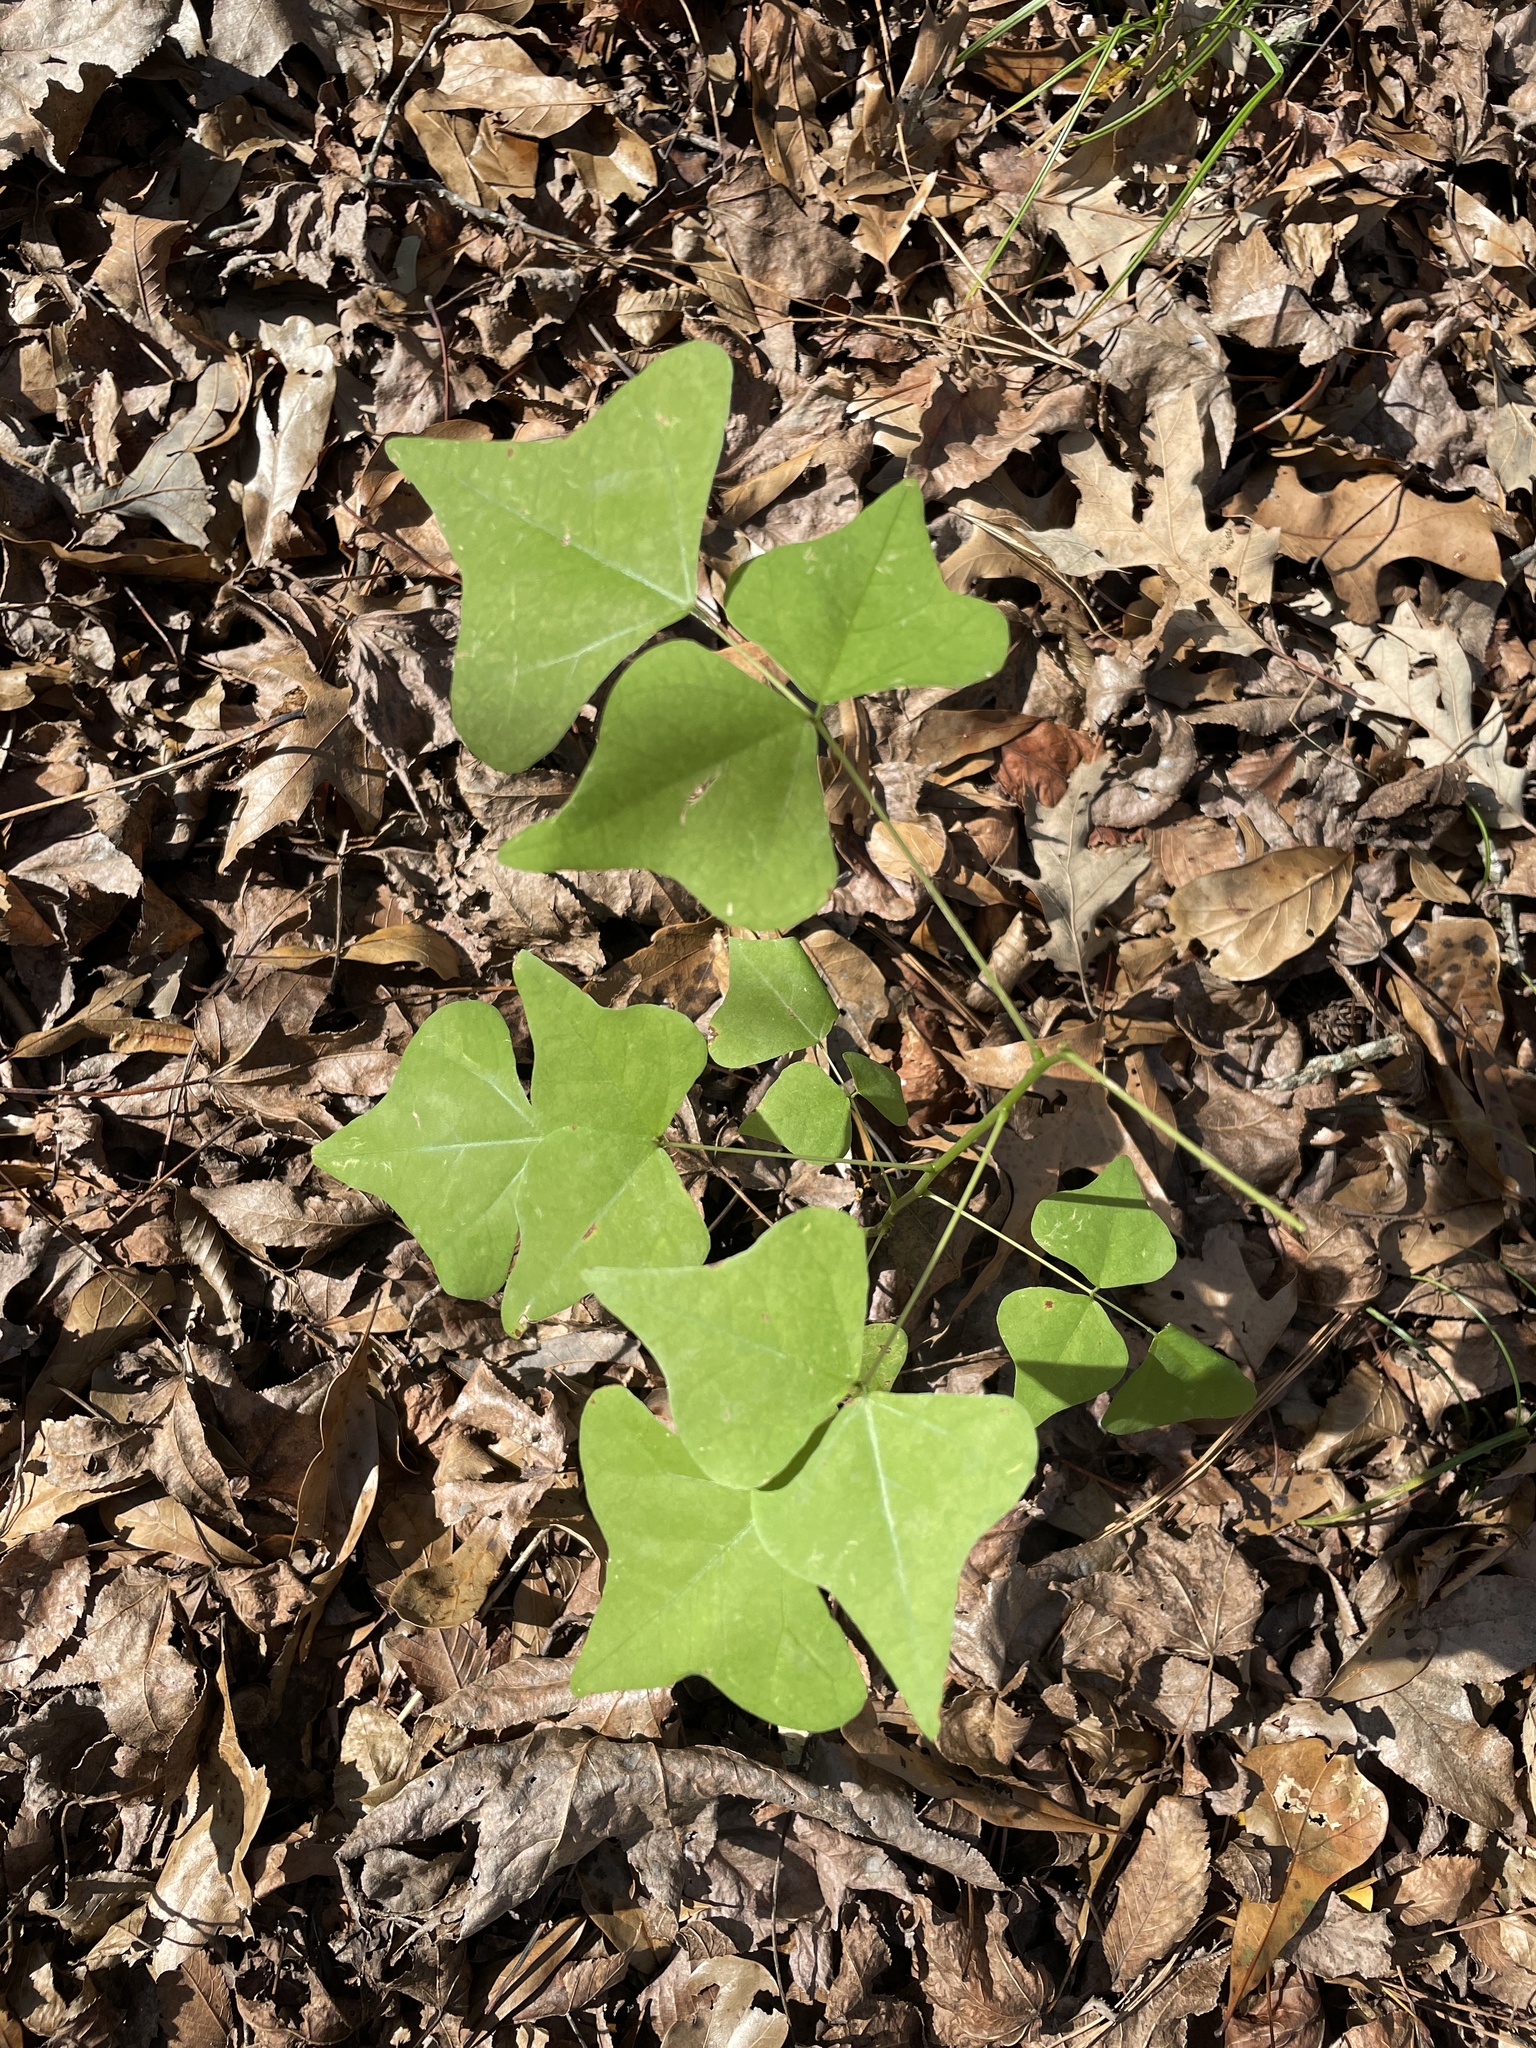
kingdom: Plantae
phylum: Tracheophyta
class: Magnoliopsida
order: Fabales
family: Fabaceae
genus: Erythrina
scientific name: Erythrina herbacea
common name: Coral-bean
